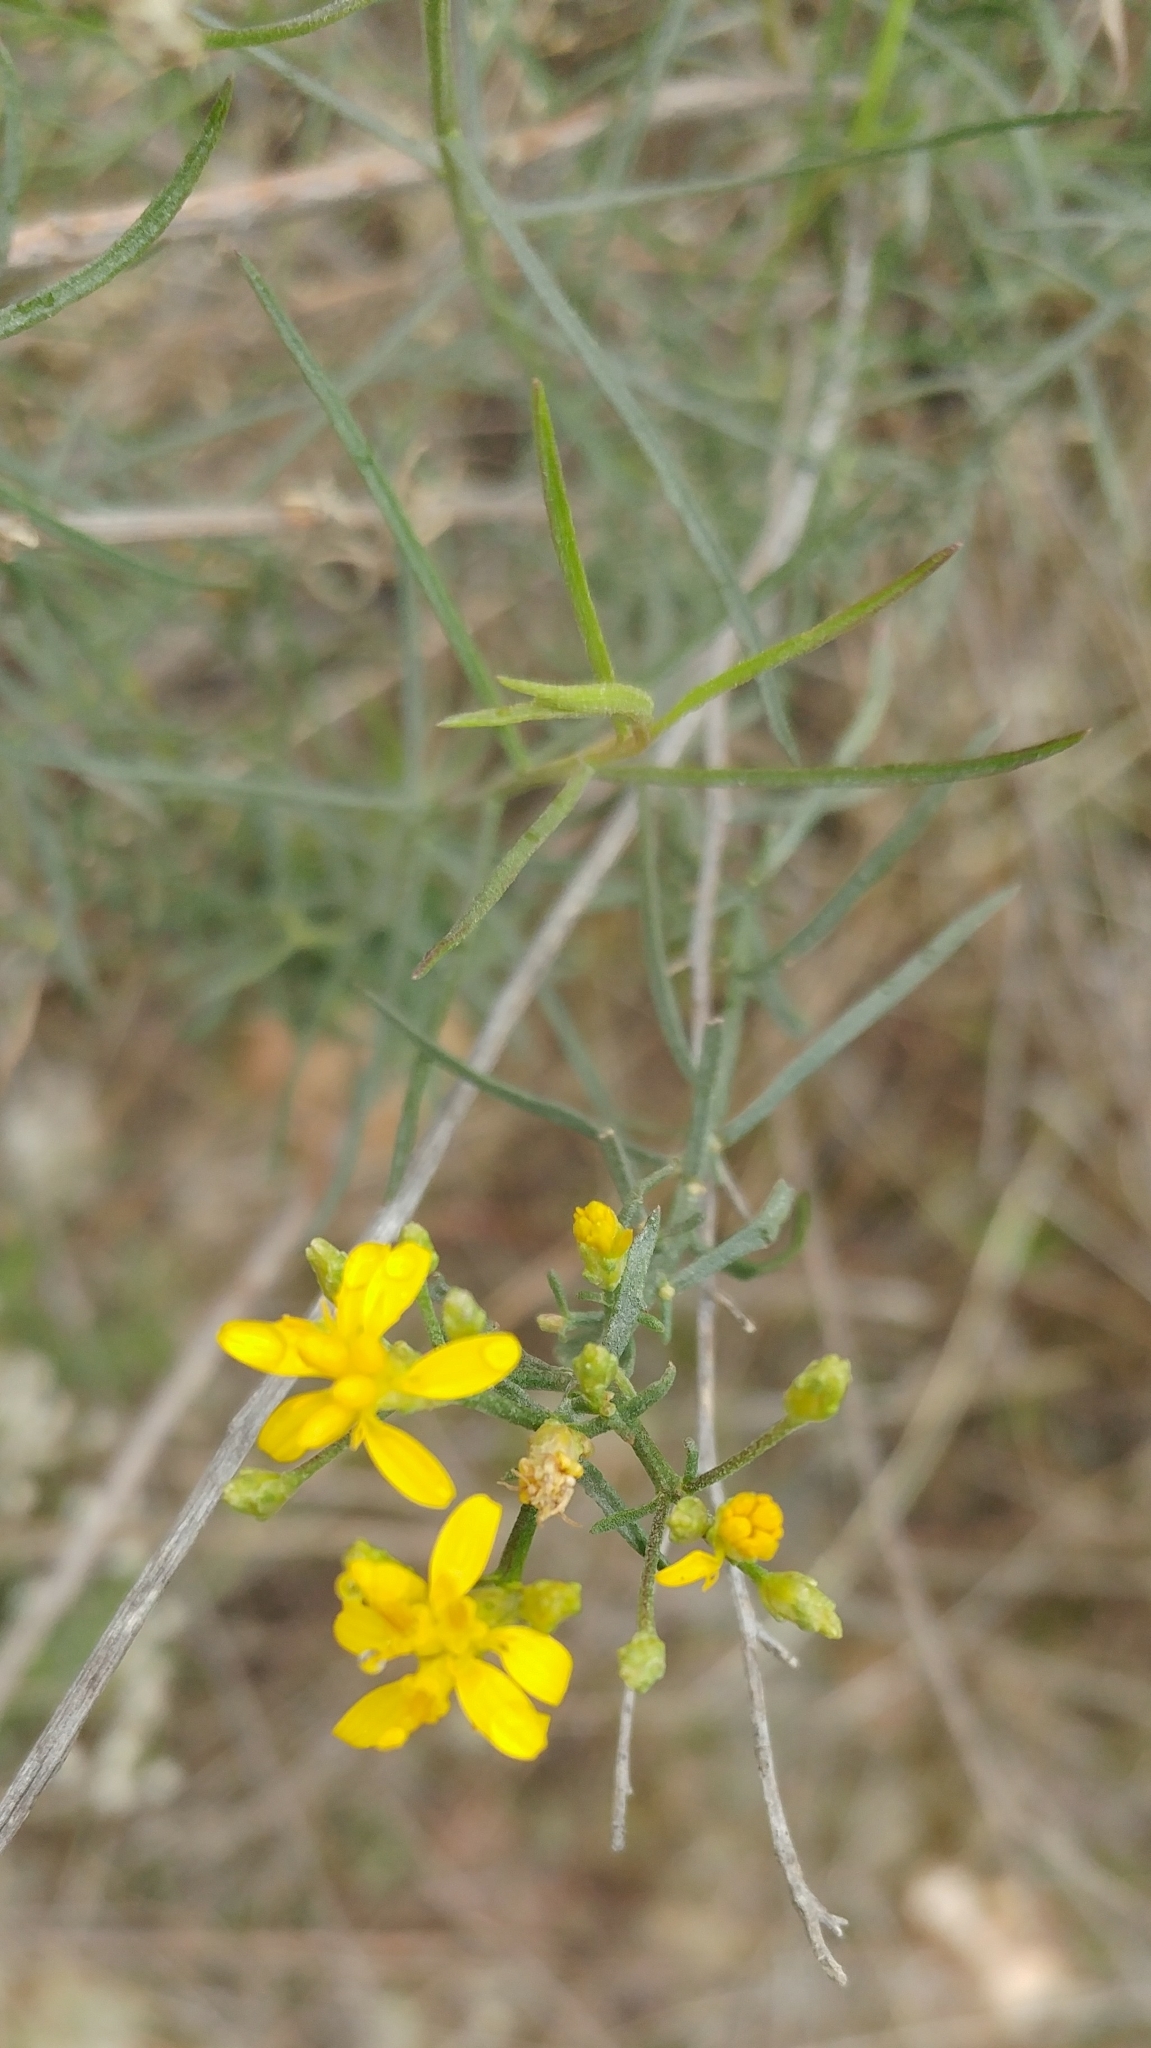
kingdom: Plantae
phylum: Tracheophyta
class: Magnoliopsida
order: Asterales
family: Asteraceae
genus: Gutierrezia
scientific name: Gutierrezia sarothrae
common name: Broom snakeweed
